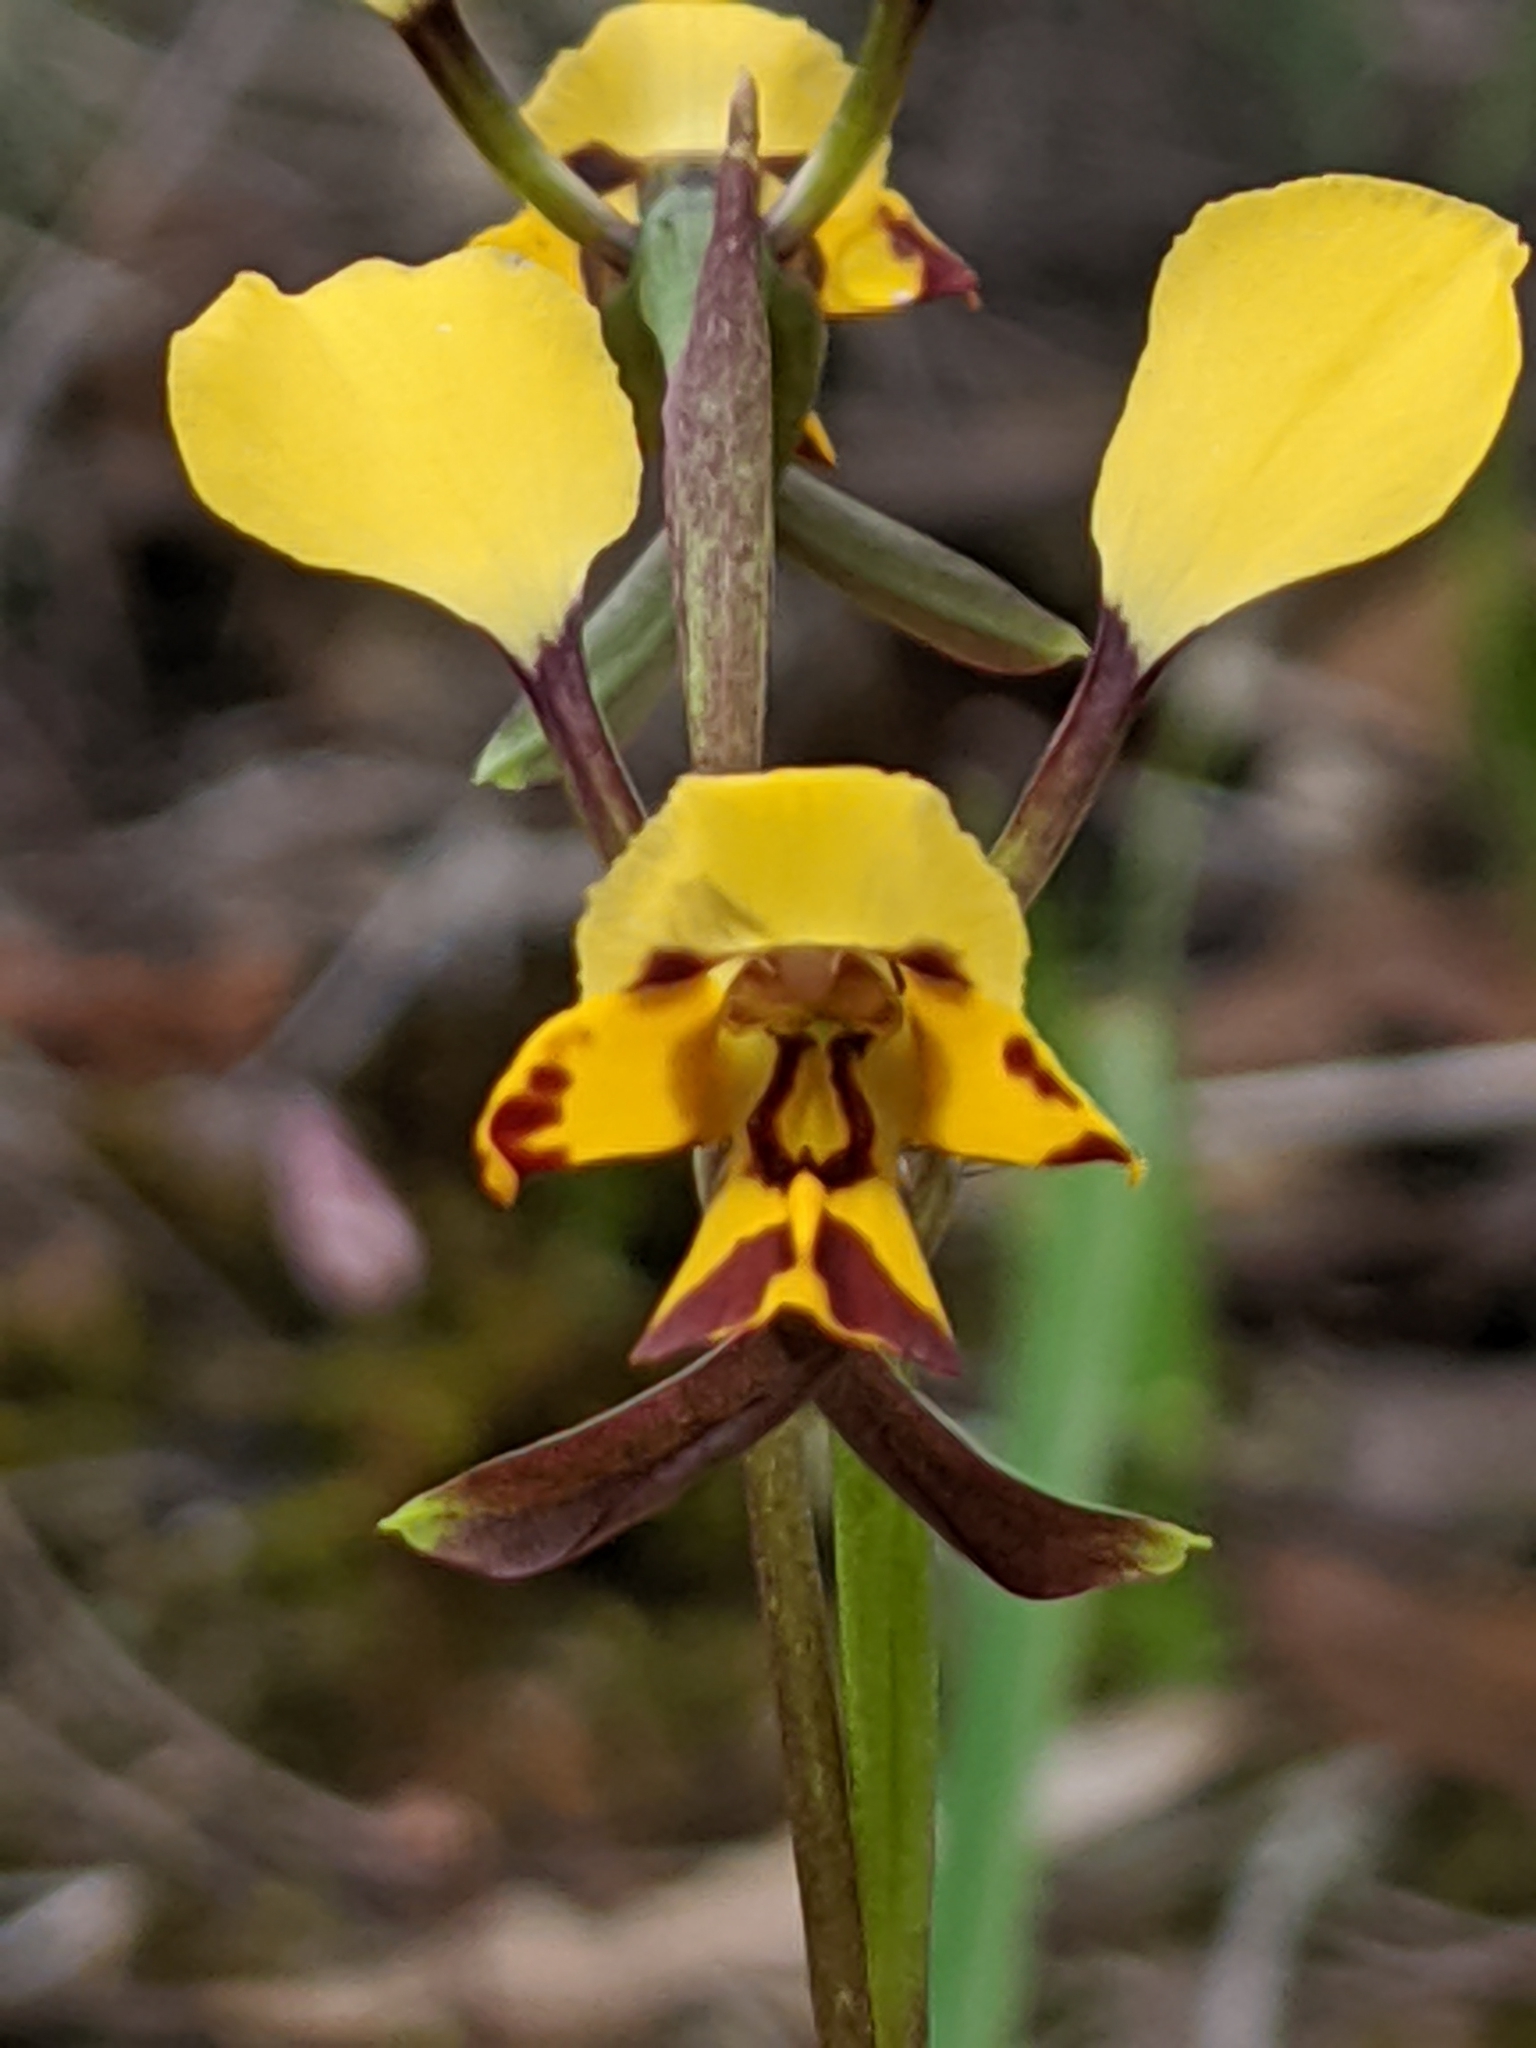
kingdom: Plantae
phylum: Tracheophyta
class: Liliopsida
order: Asparagales
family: Orchidaceae
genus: Diuris
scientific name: Diuris pardina
